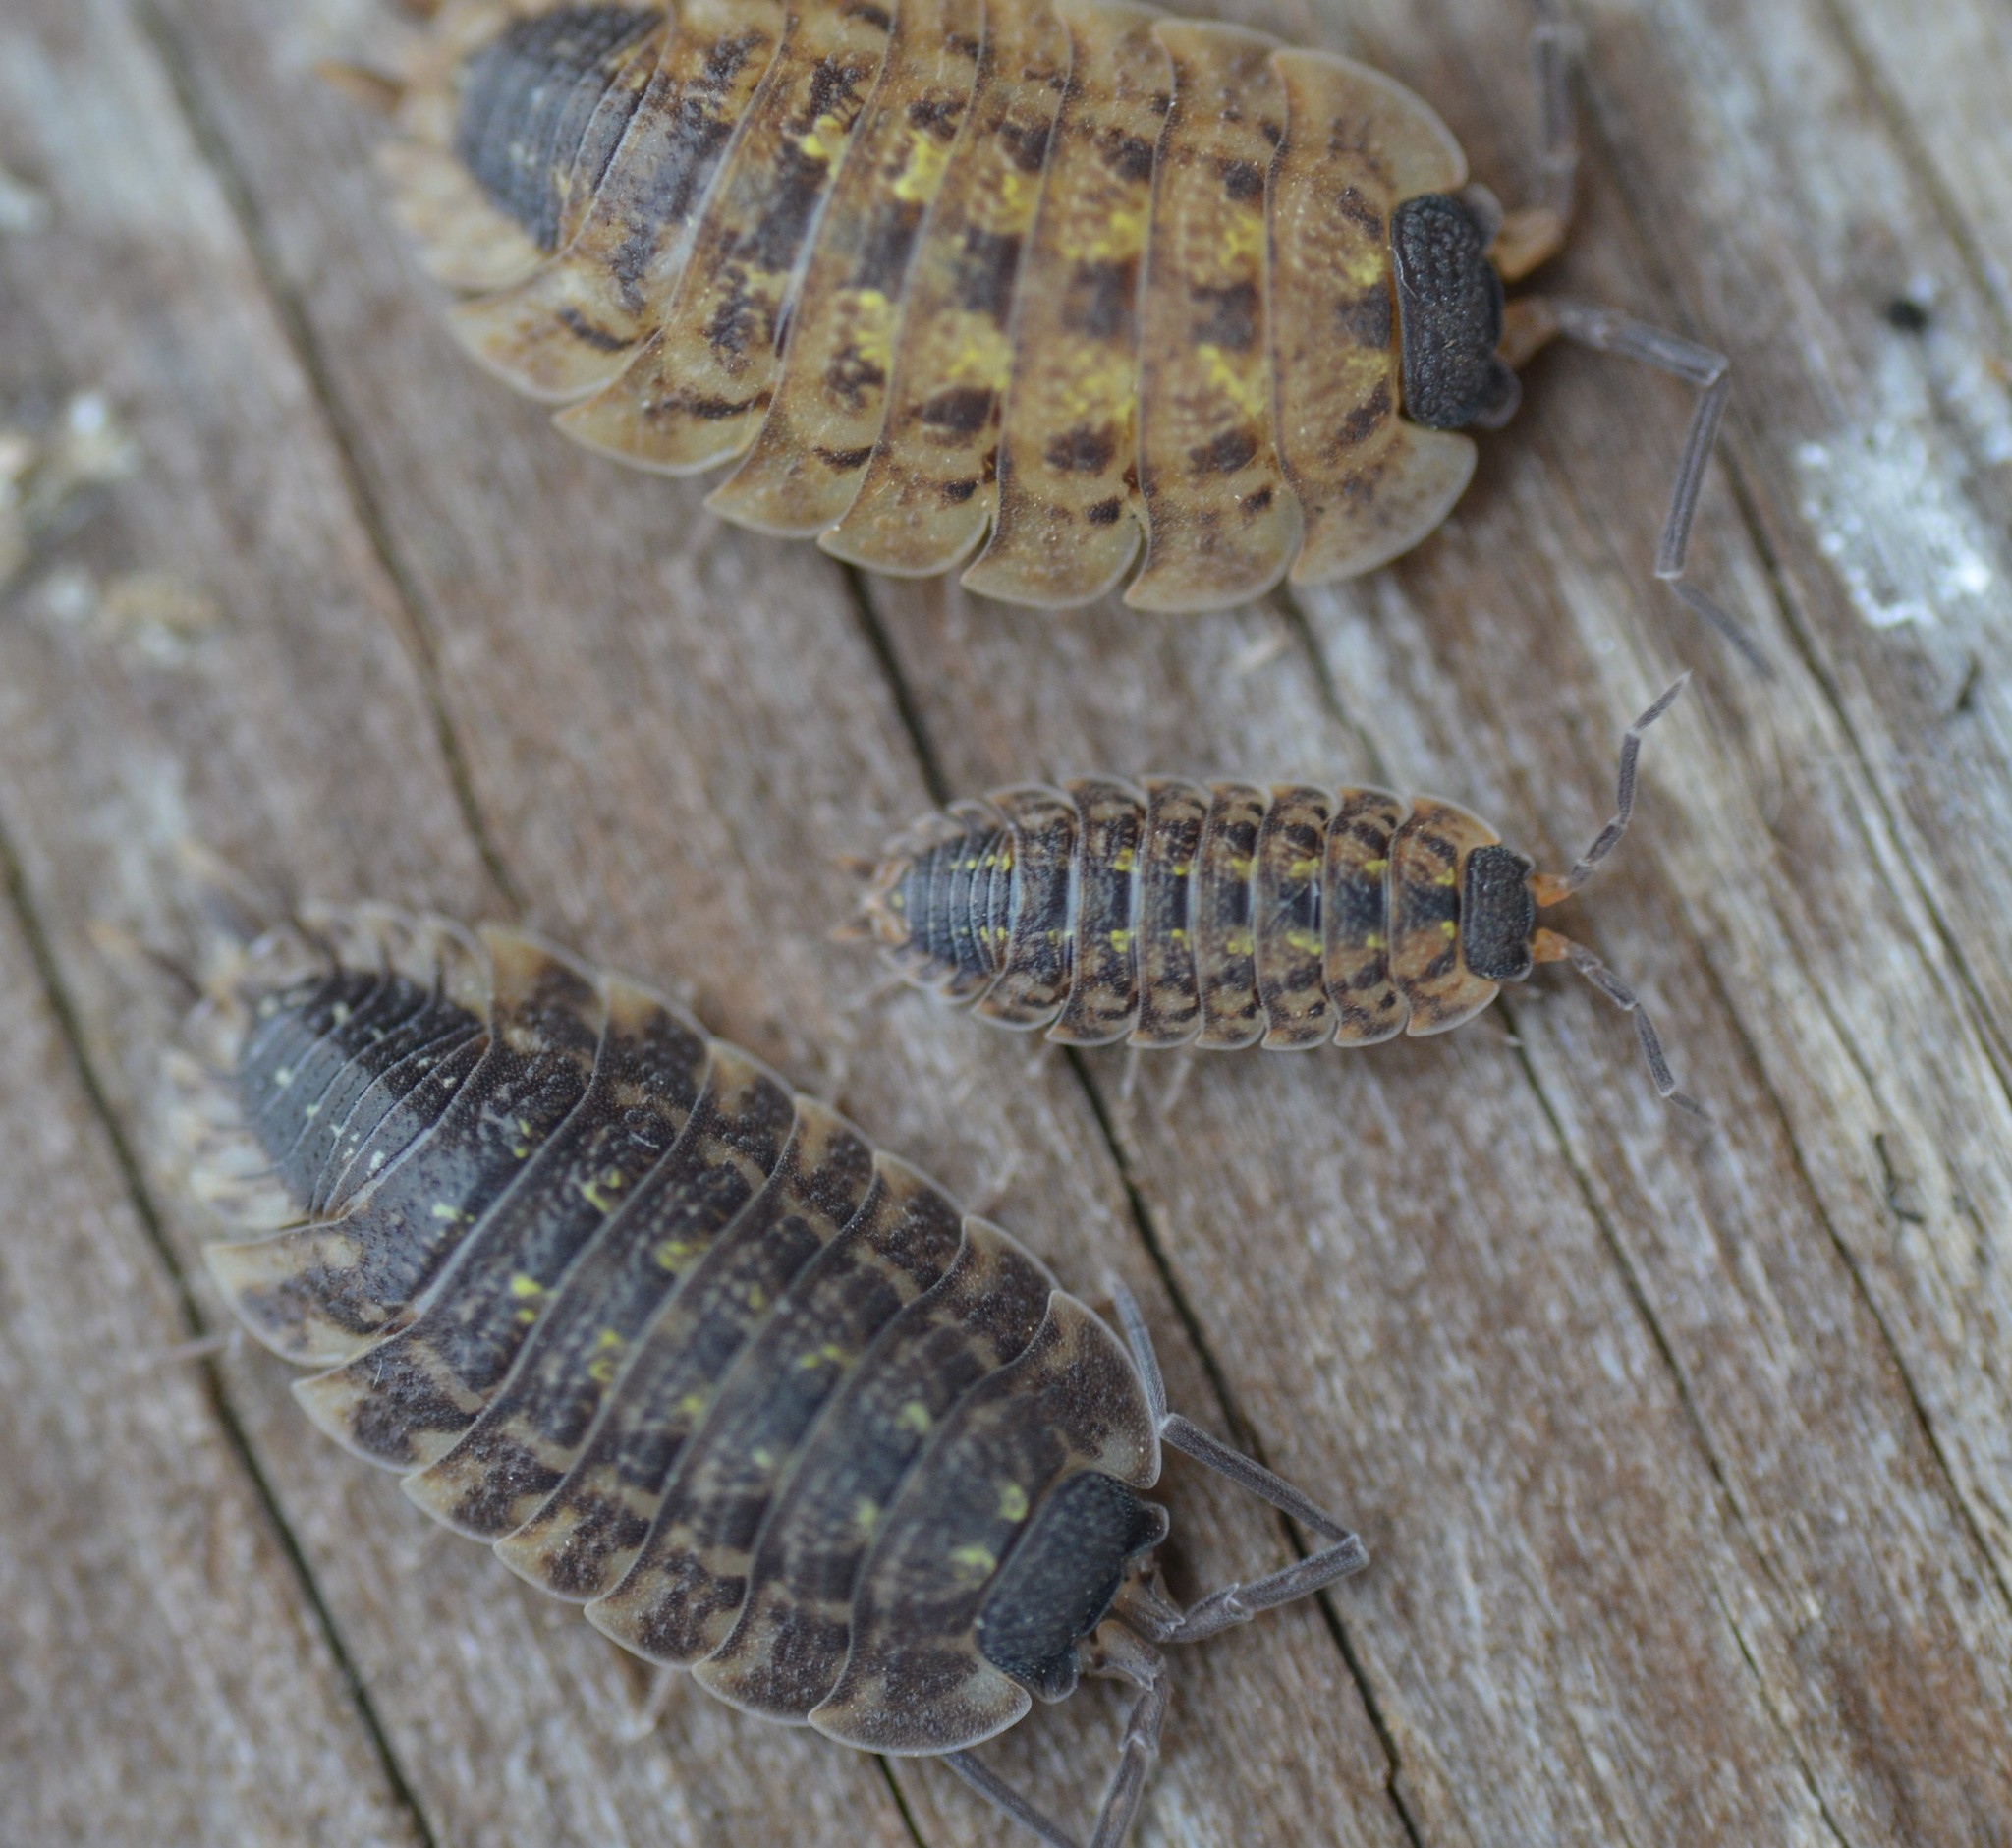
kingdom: Animalia
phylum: Arthropoda
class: Malacostraca
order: Isopoda
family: Porcellionidae
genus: Porcellio
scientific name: Porcellio spinicornis
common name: Painted woodlouse
